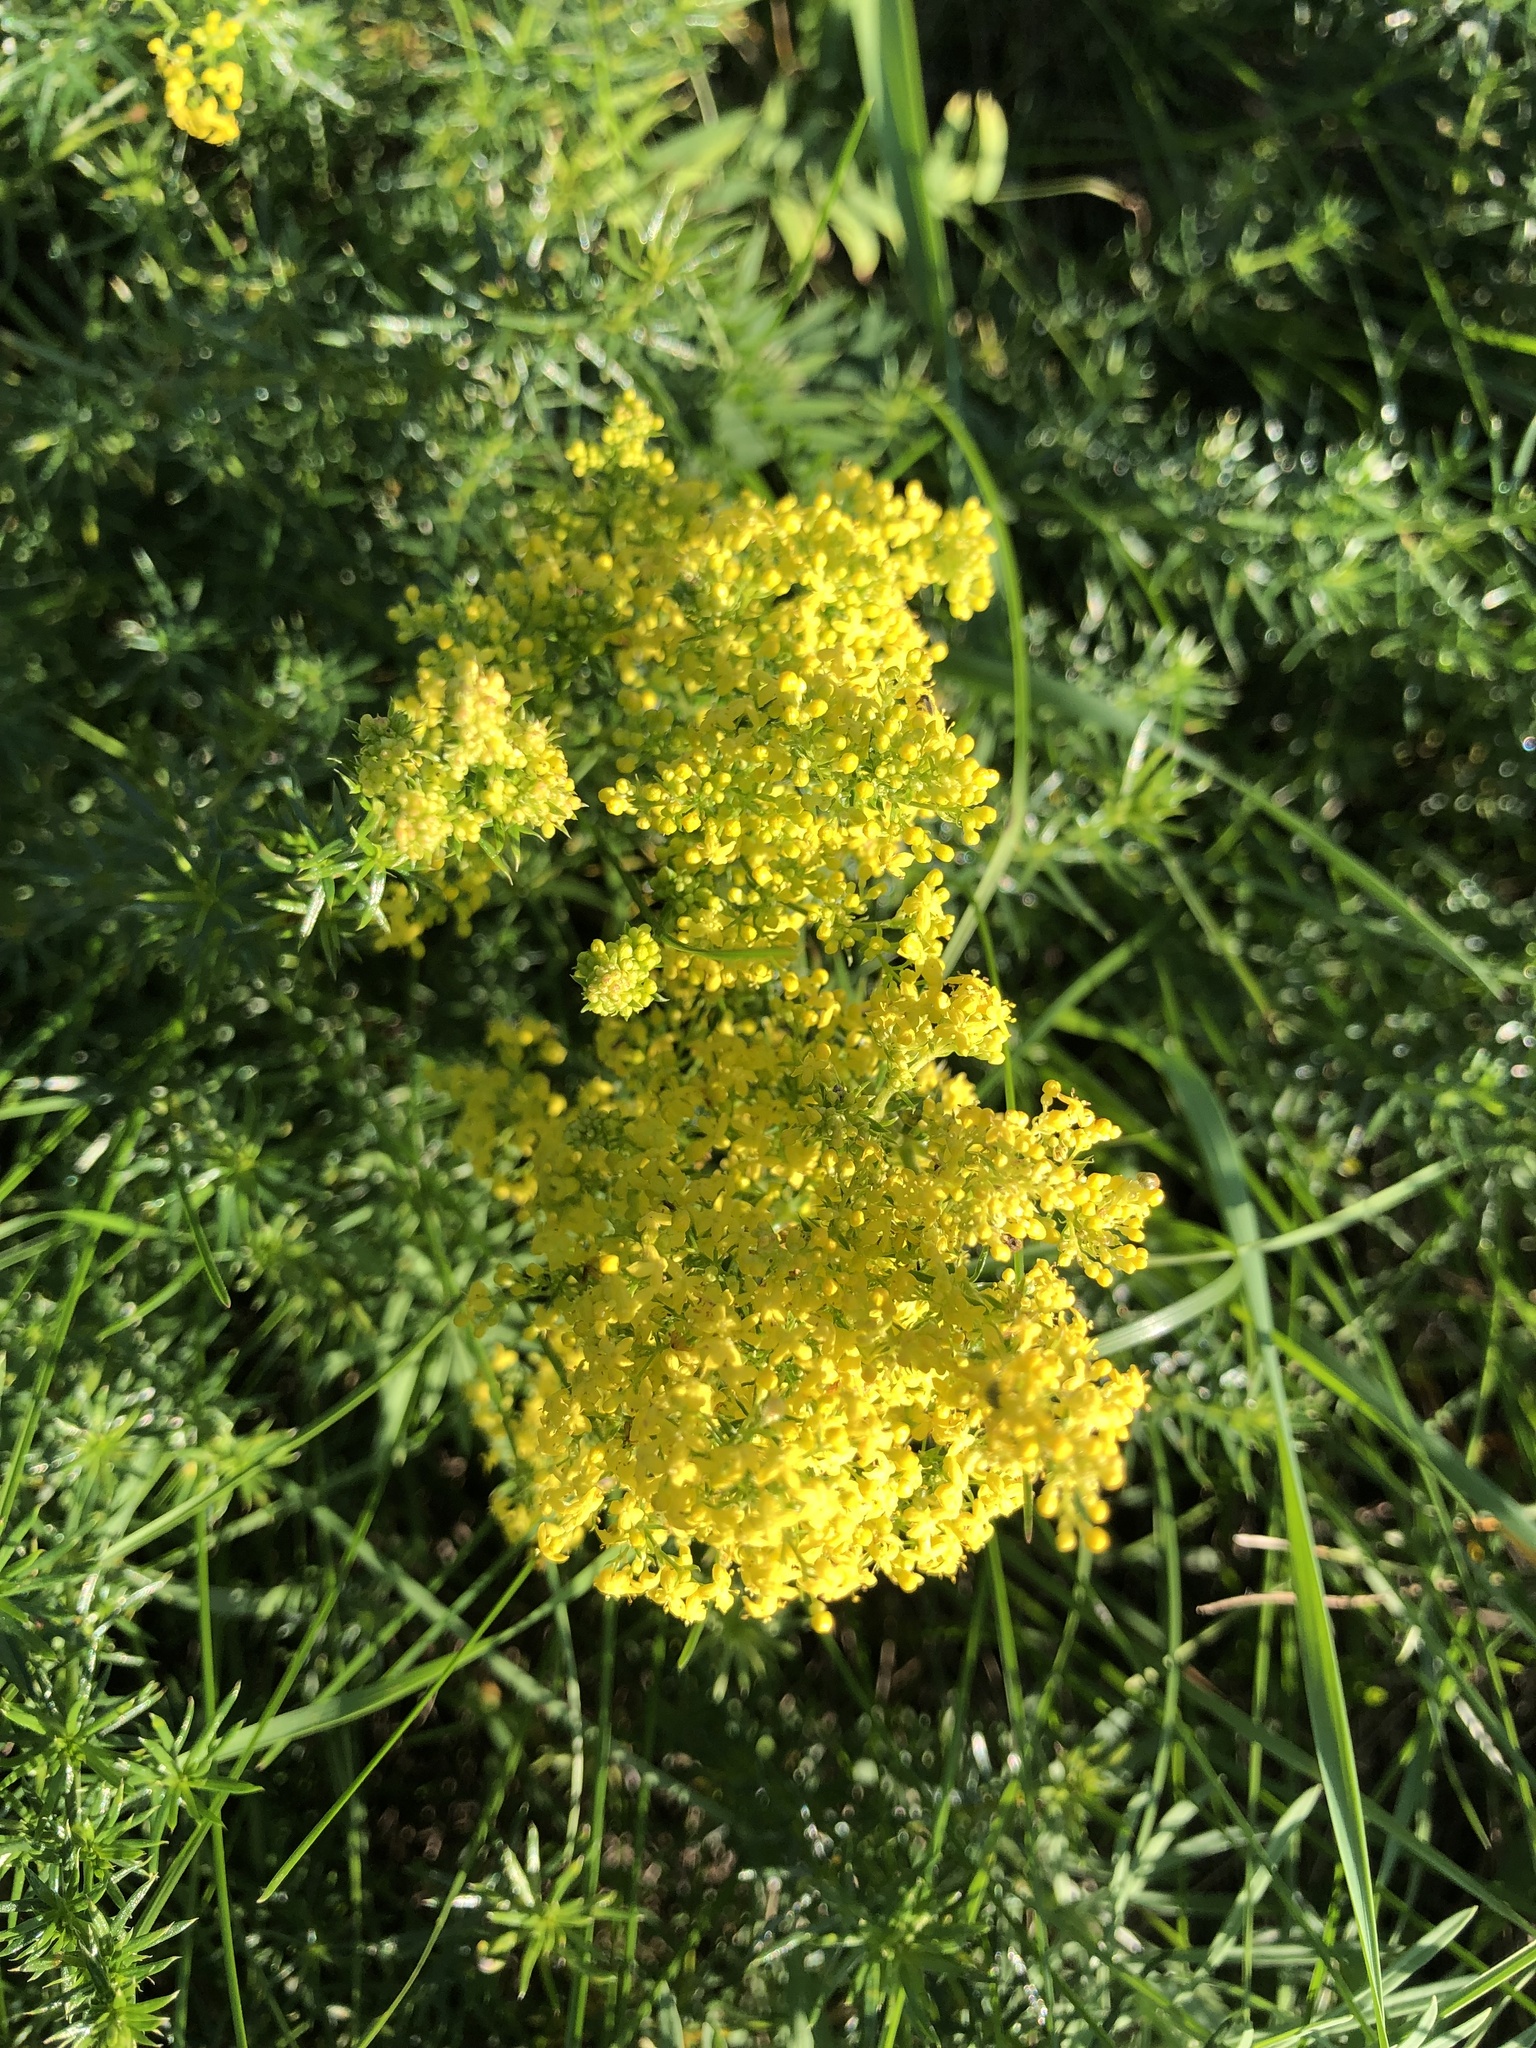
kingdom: Plantae
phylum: Tracheophyta
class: Magnoliopsida
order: Gentianales
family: Rubiaceae
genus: Galium
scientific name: Galium verum
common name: Lady's bedstraw
